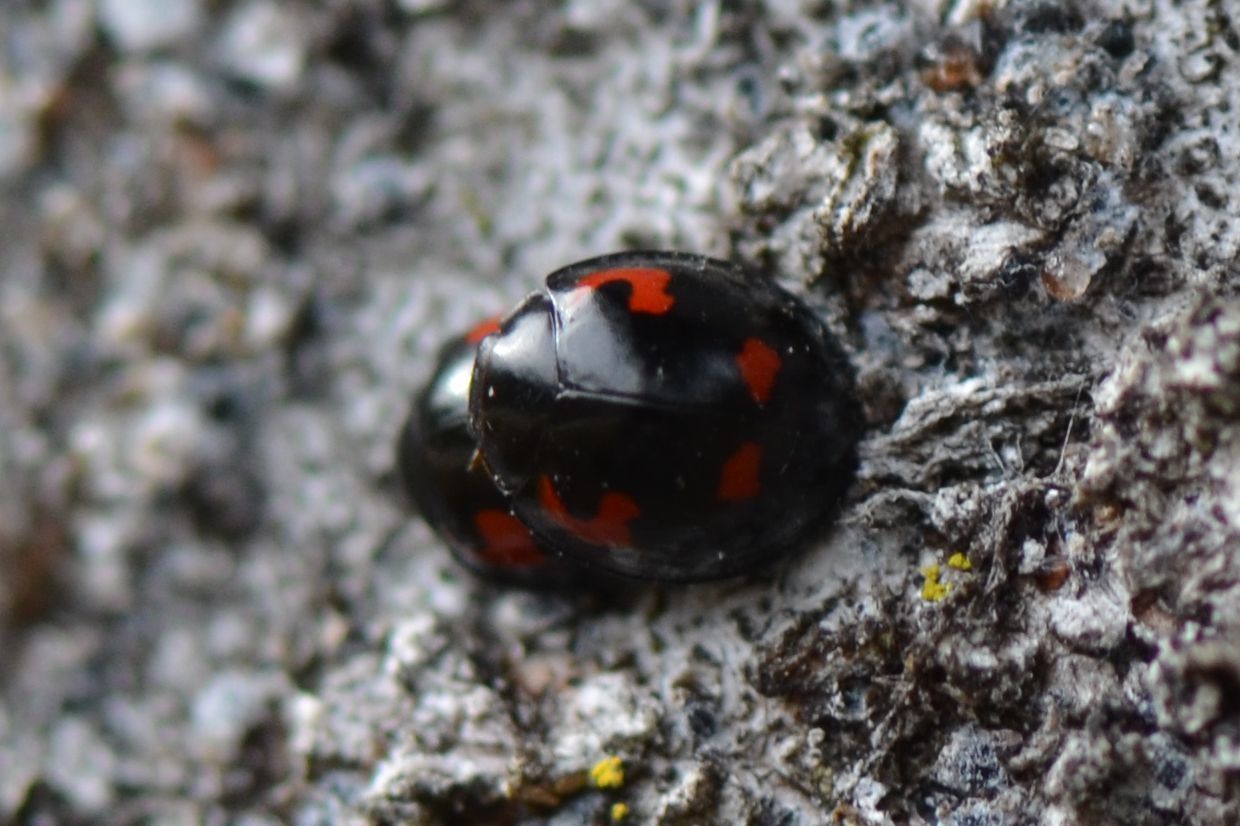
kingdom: Animalia
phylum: Arthropoda
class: Insecta
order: Coleoptera
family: Coccinellidae
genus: Brumus
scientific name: Brumus quadripustulatus
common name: Ladybird beetle
